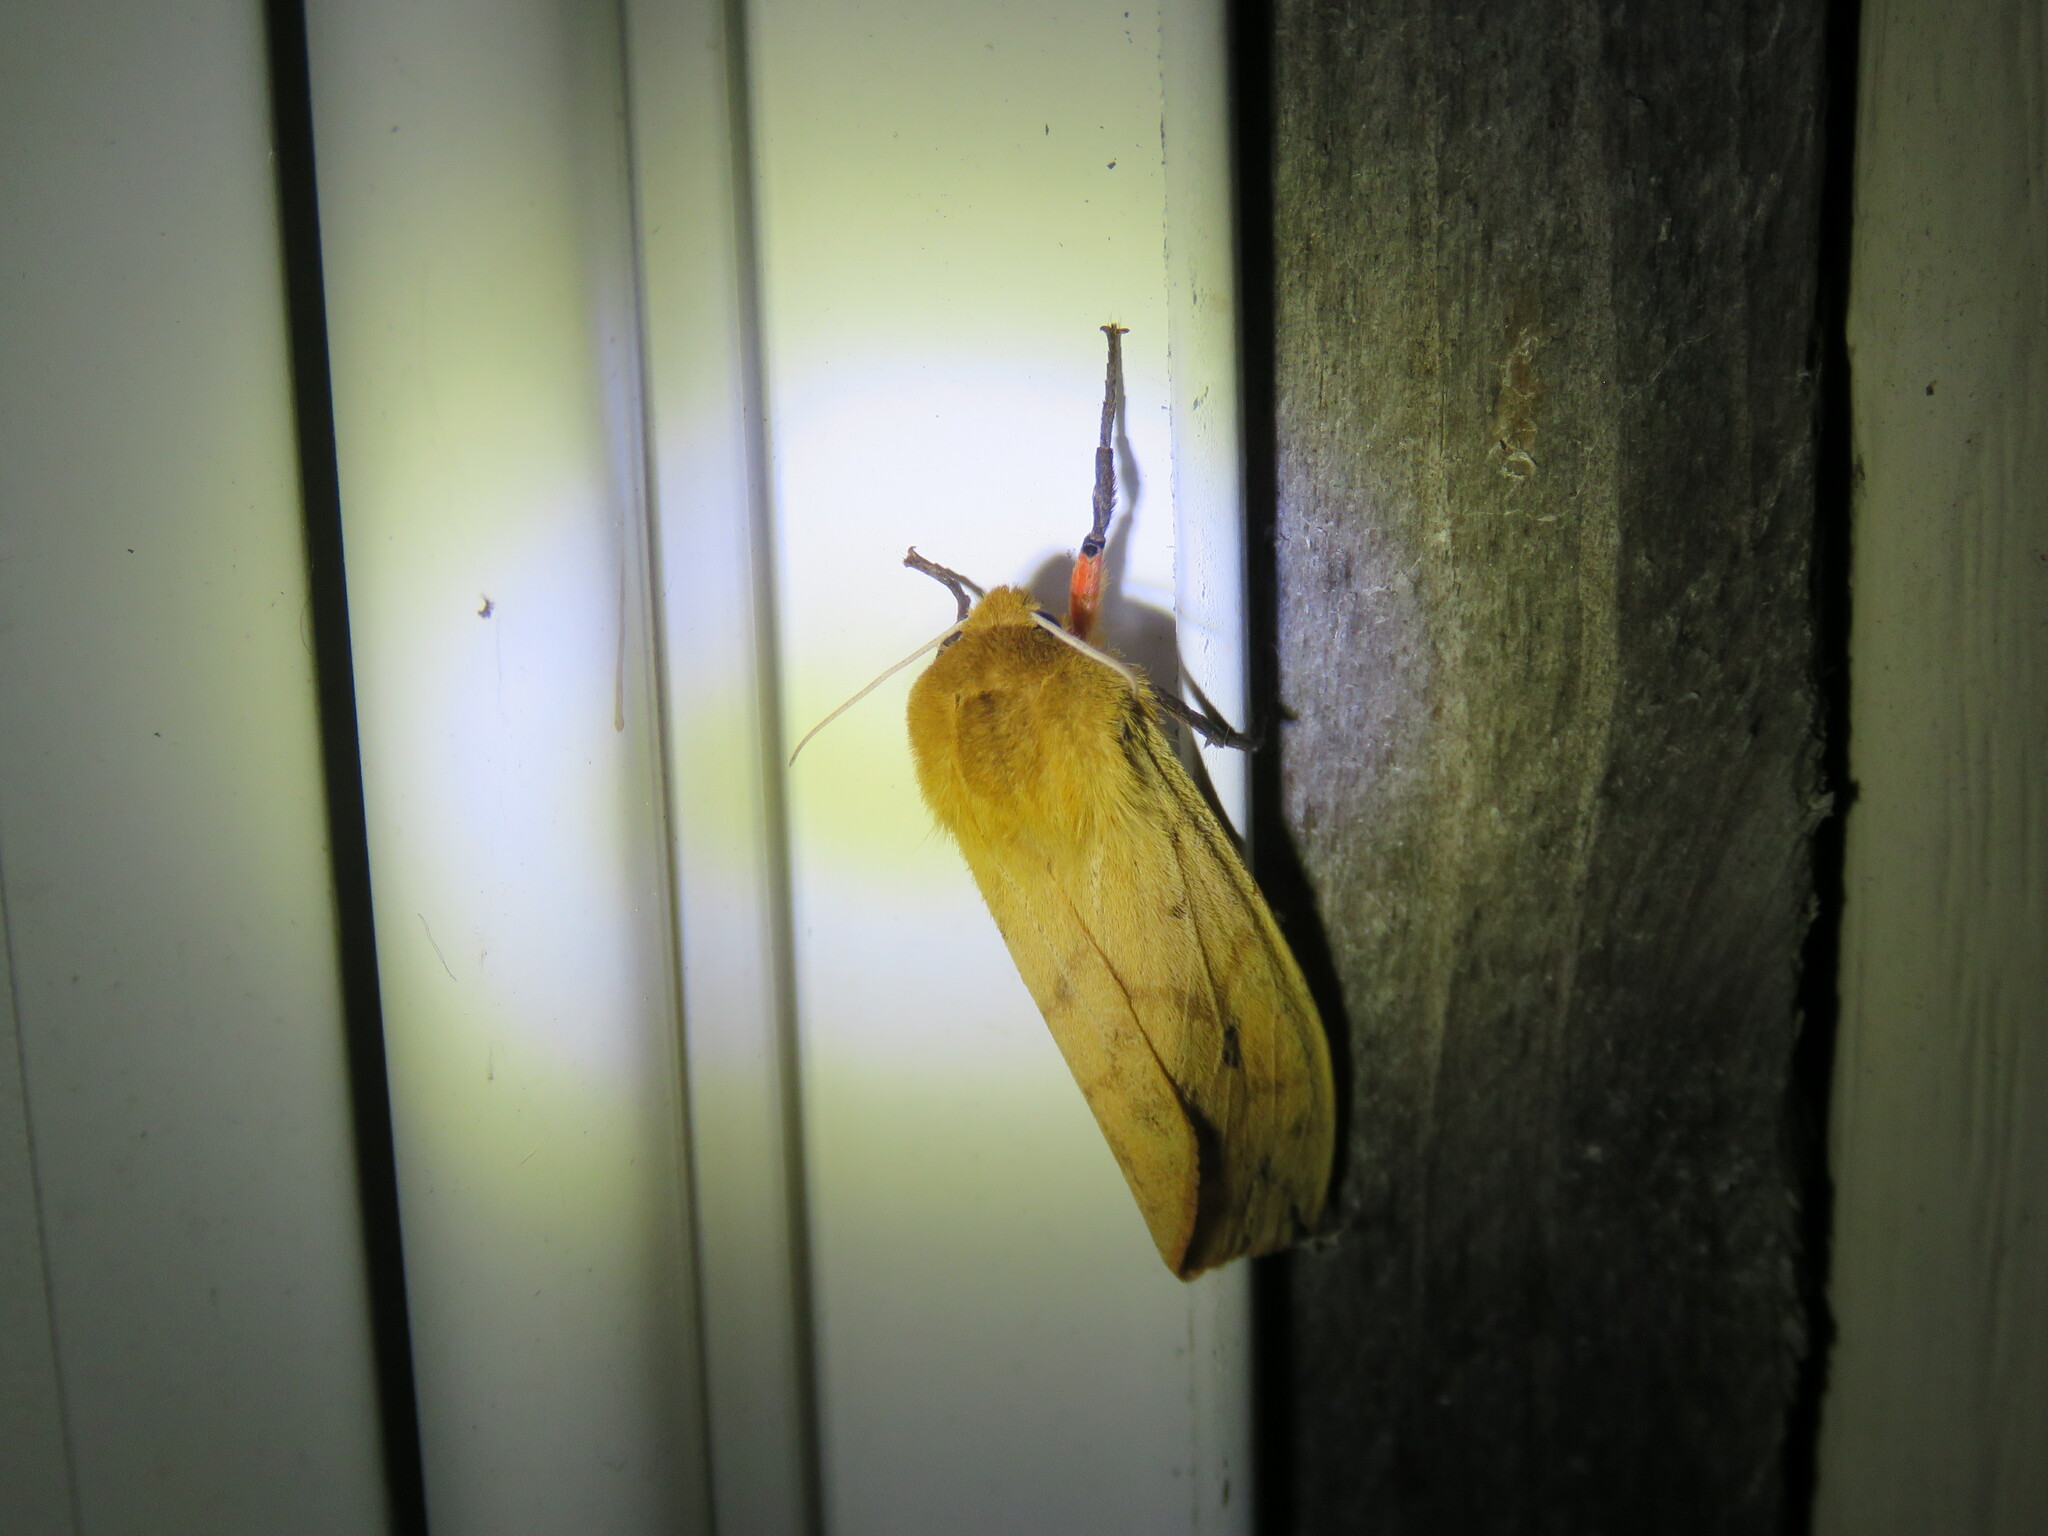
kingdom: Animalia
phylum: Arthropoda
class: Insecta
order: Lepidoptera
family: Erebidae
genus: Pyrrharctia
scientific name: Pyrrharctia isabella
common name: Isabella tiger moth
